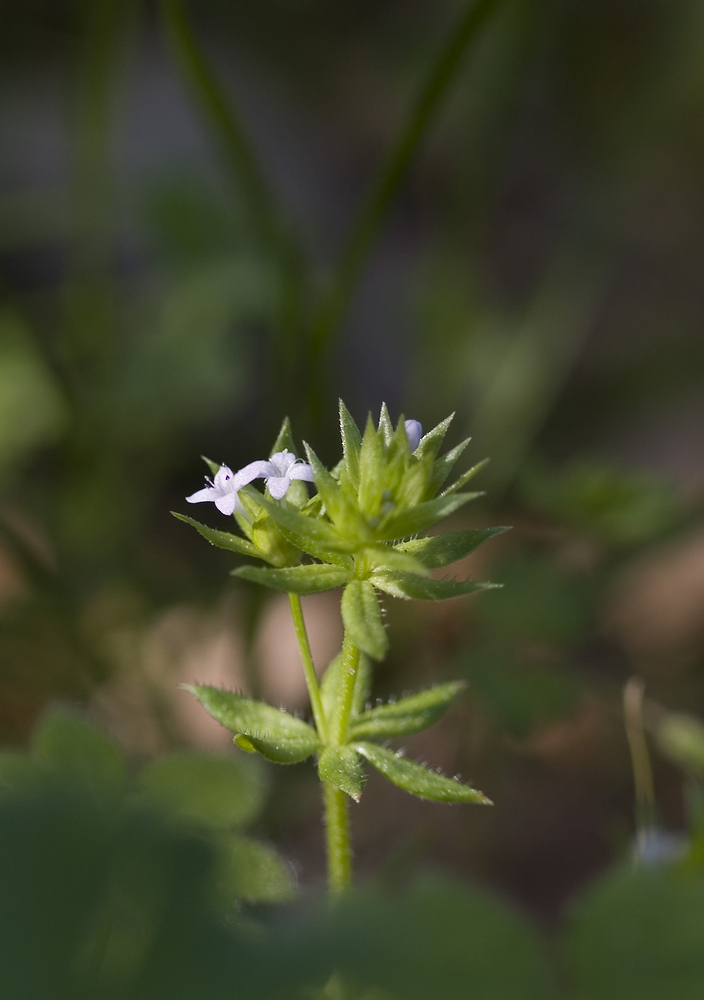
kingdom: Plantae
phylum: Tracheophyta
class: Magnoliopsida
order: Gentianales
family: Rubiaceae
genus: Sherardia
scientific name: Sherardia arvensis
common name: Field madder
